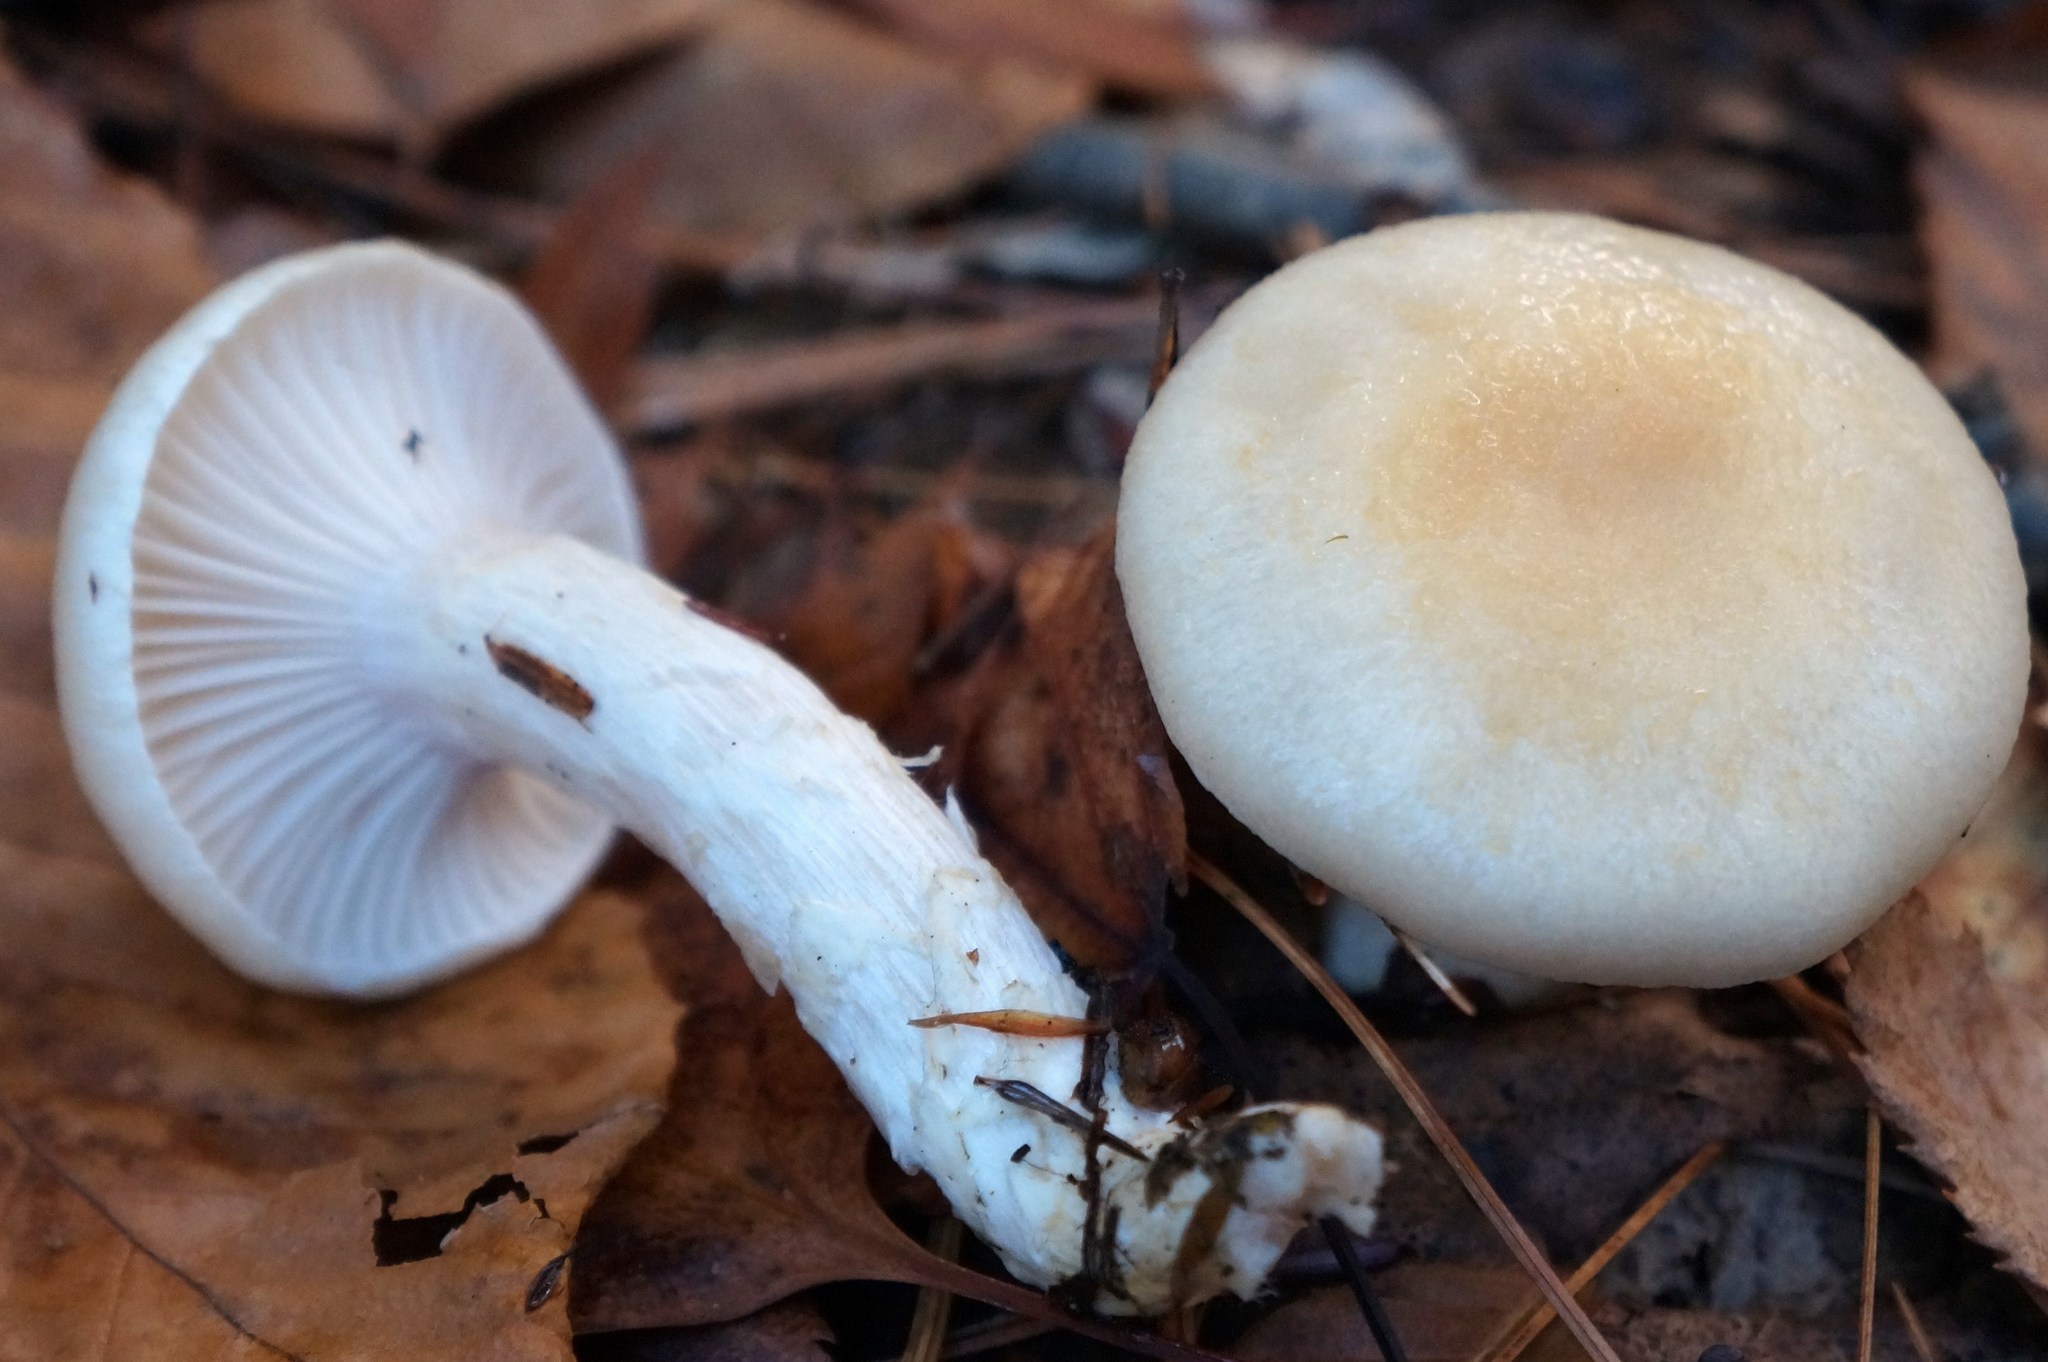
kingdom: Fungi
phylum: Basidiomycota
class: Agaricomycetes
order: Agaricales
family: Hygrophoraceae
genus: Hygrophorus
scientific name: Hygrophorus ligatus
